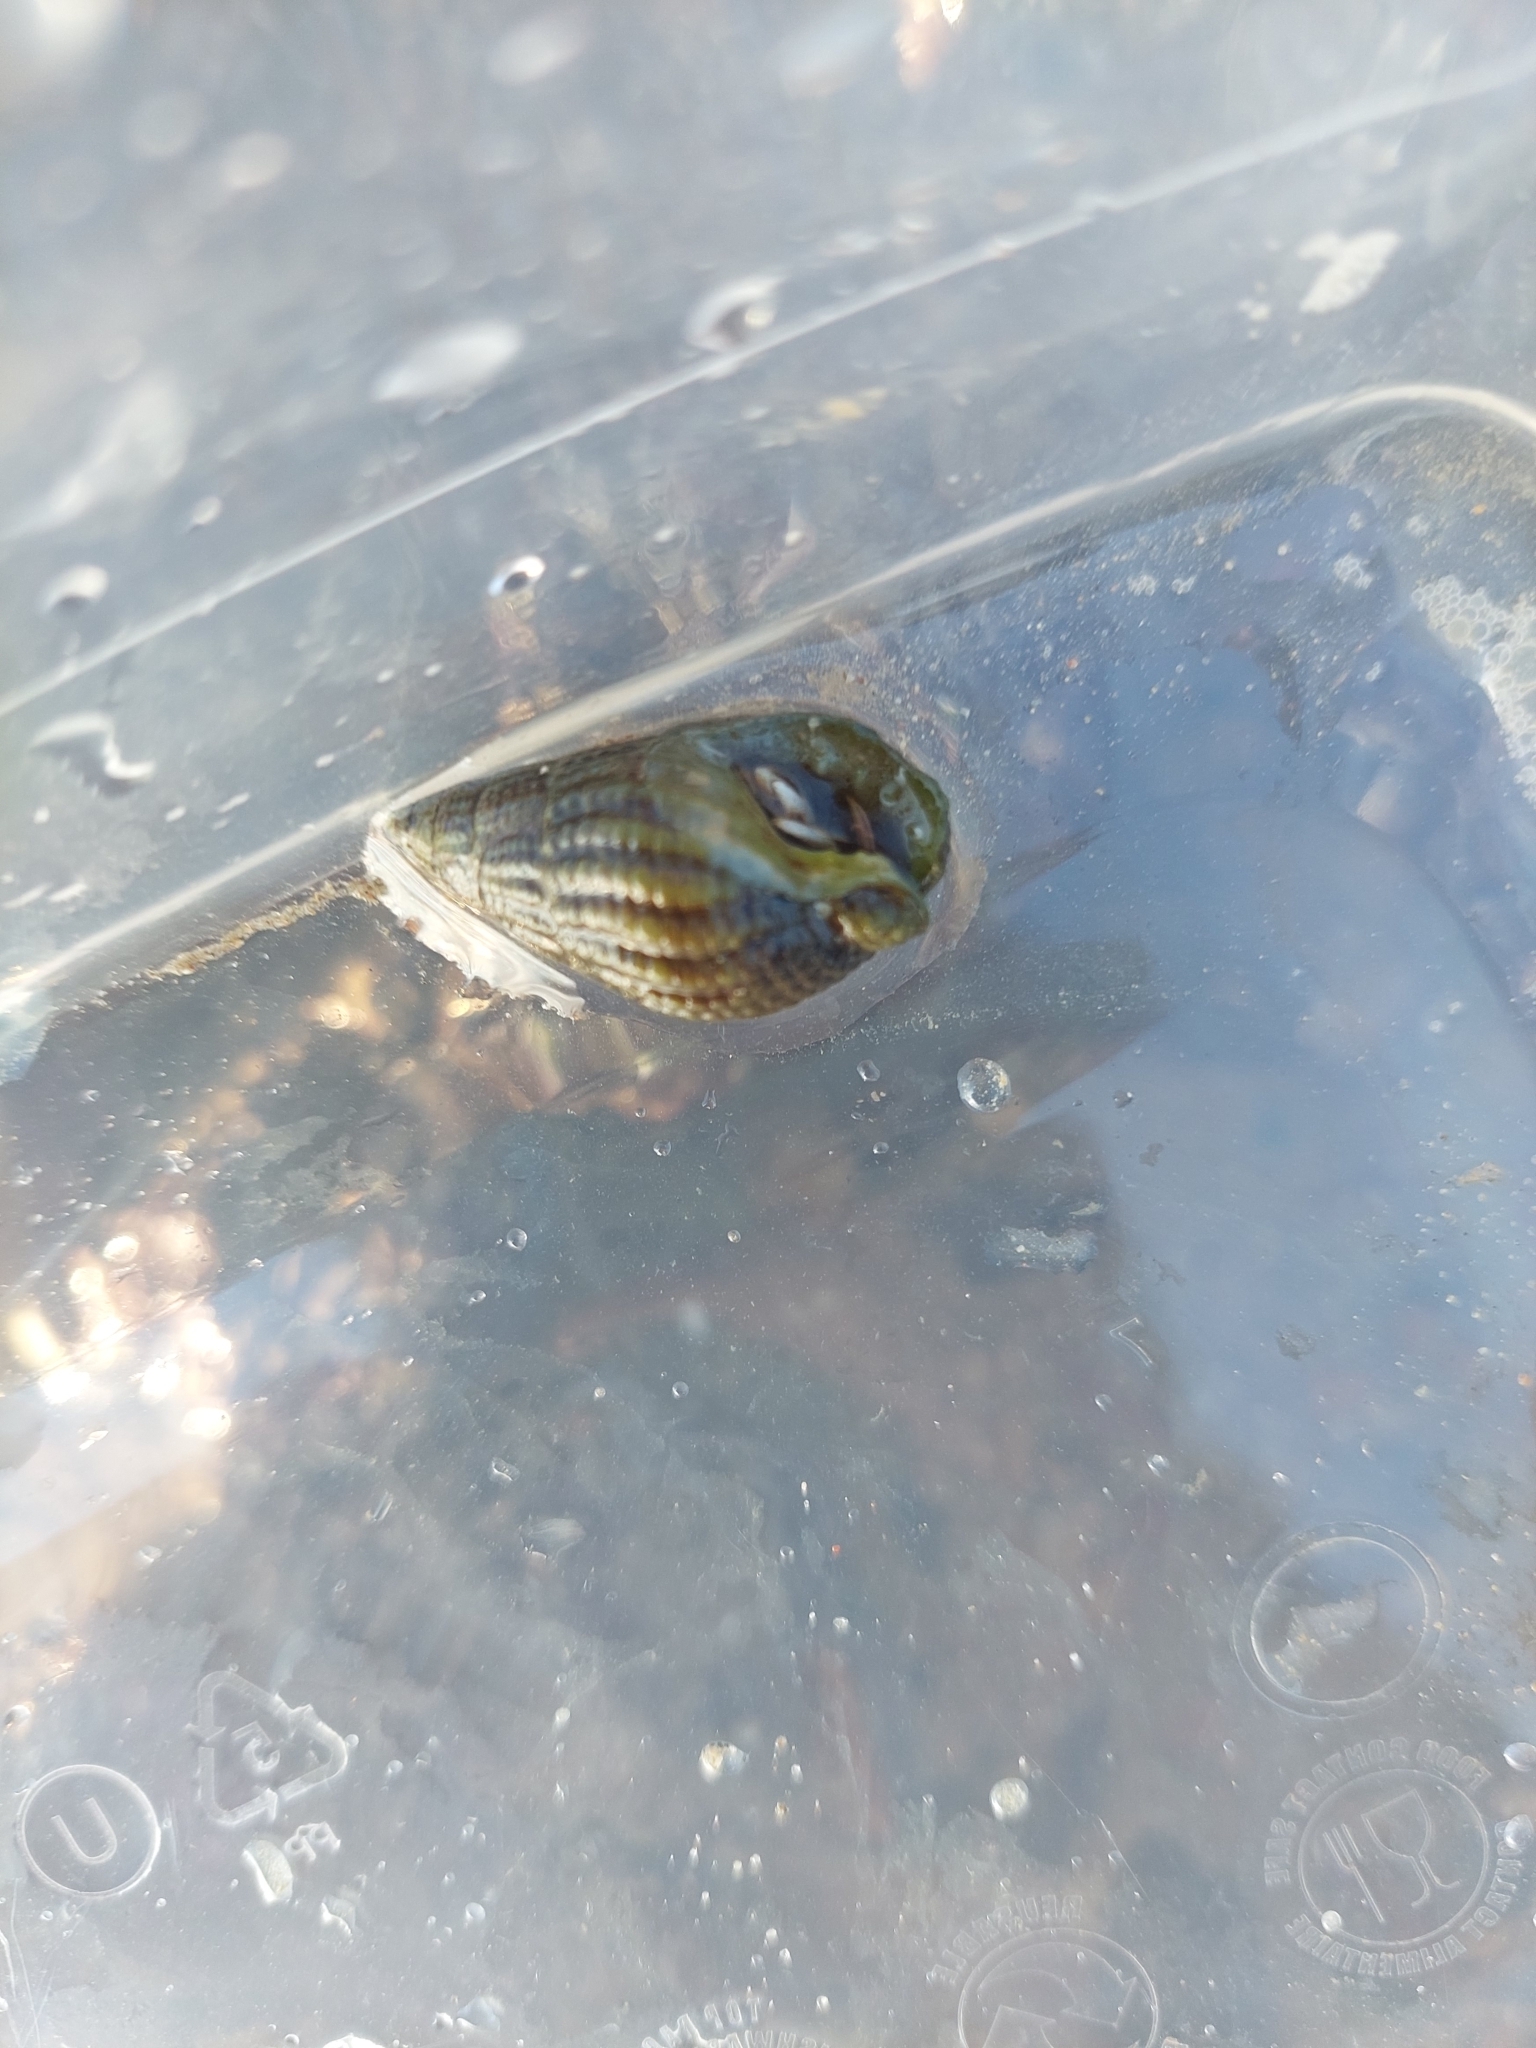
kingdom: Animalia
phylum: Mollusca
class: Gastropoda
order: Neogastropoda
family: Nassariidae
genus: Tritia
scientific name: Tritia reticulata
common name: Netted dog whelk
